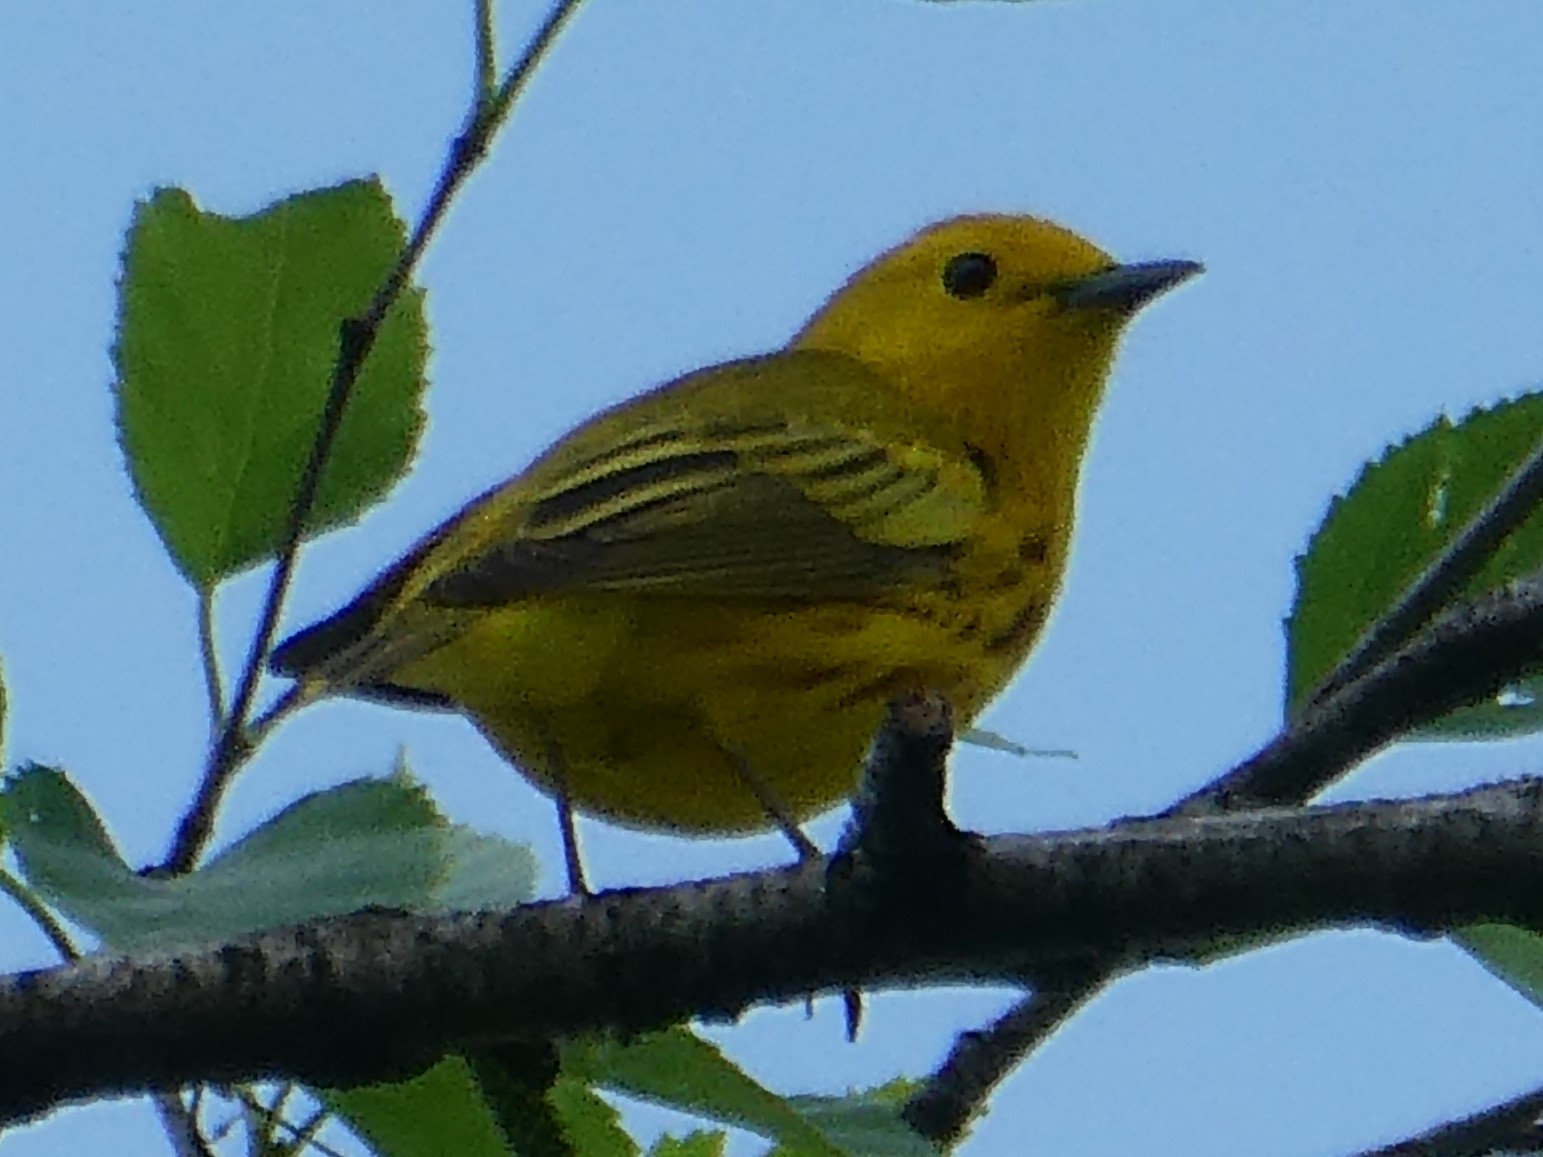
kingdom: Animalia
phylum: Chordata
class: Aves
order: Passeriformes
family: Parulidae
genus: Setophaga
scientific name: Setophaga petechia
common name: Yellow warbler
